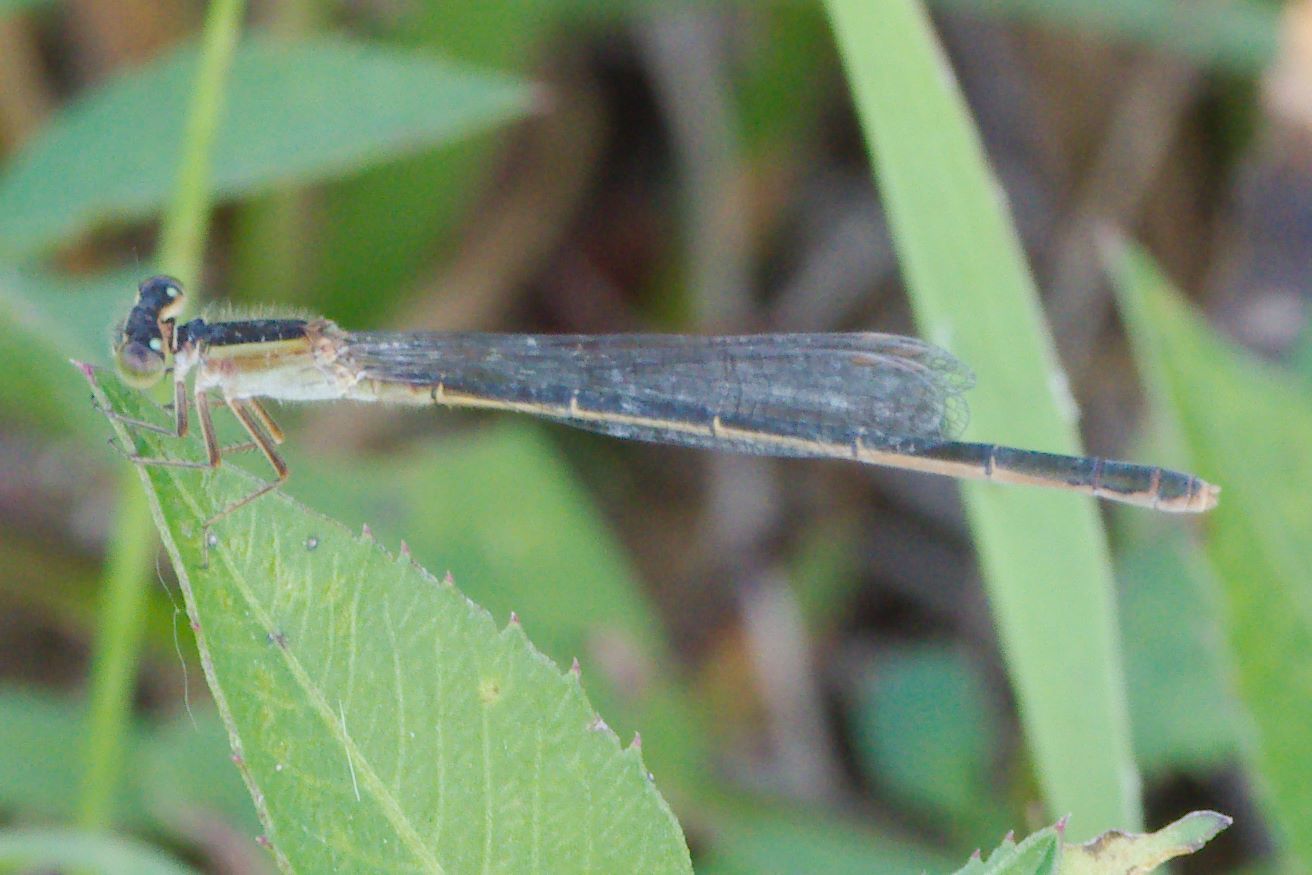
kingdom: Animalia
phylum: Arthropoda
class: Insecta
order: Odonata
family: Coenagrionidae
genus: Ischnura
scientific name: Ischnura ramburii
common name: Rambur's forktail
